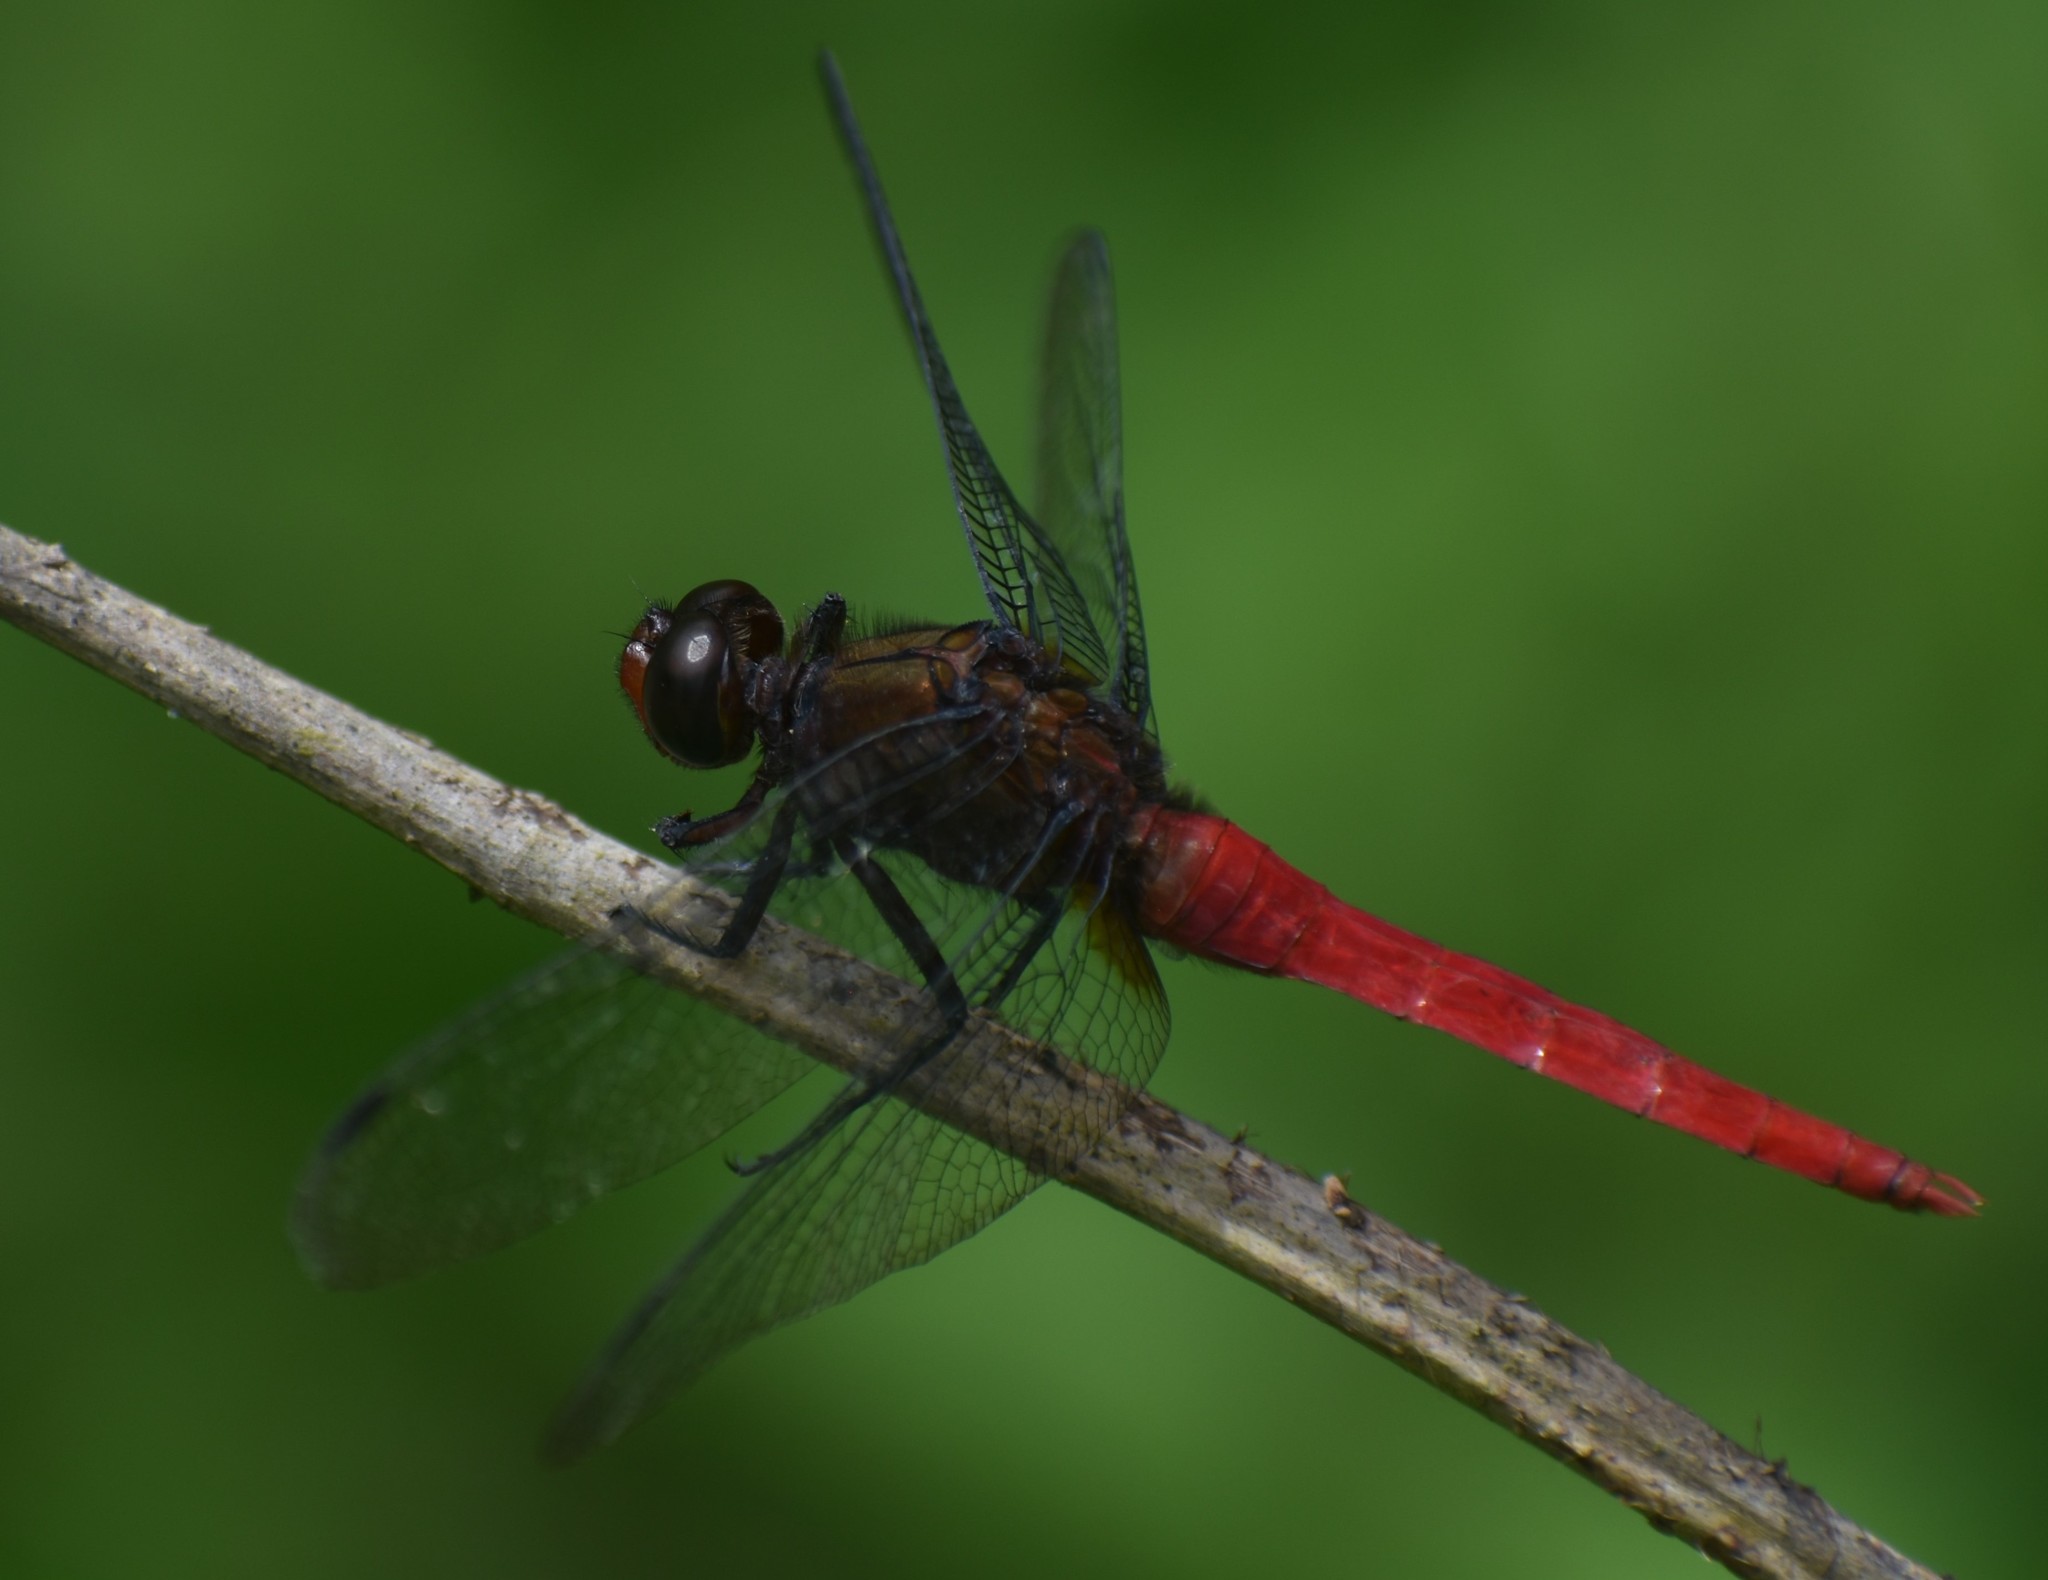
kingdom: Animalia
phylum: Arthropoda
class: Insecta
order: Odonata
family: Libellulidae
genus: Orthetrum
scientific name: Orthetrum chrysis
